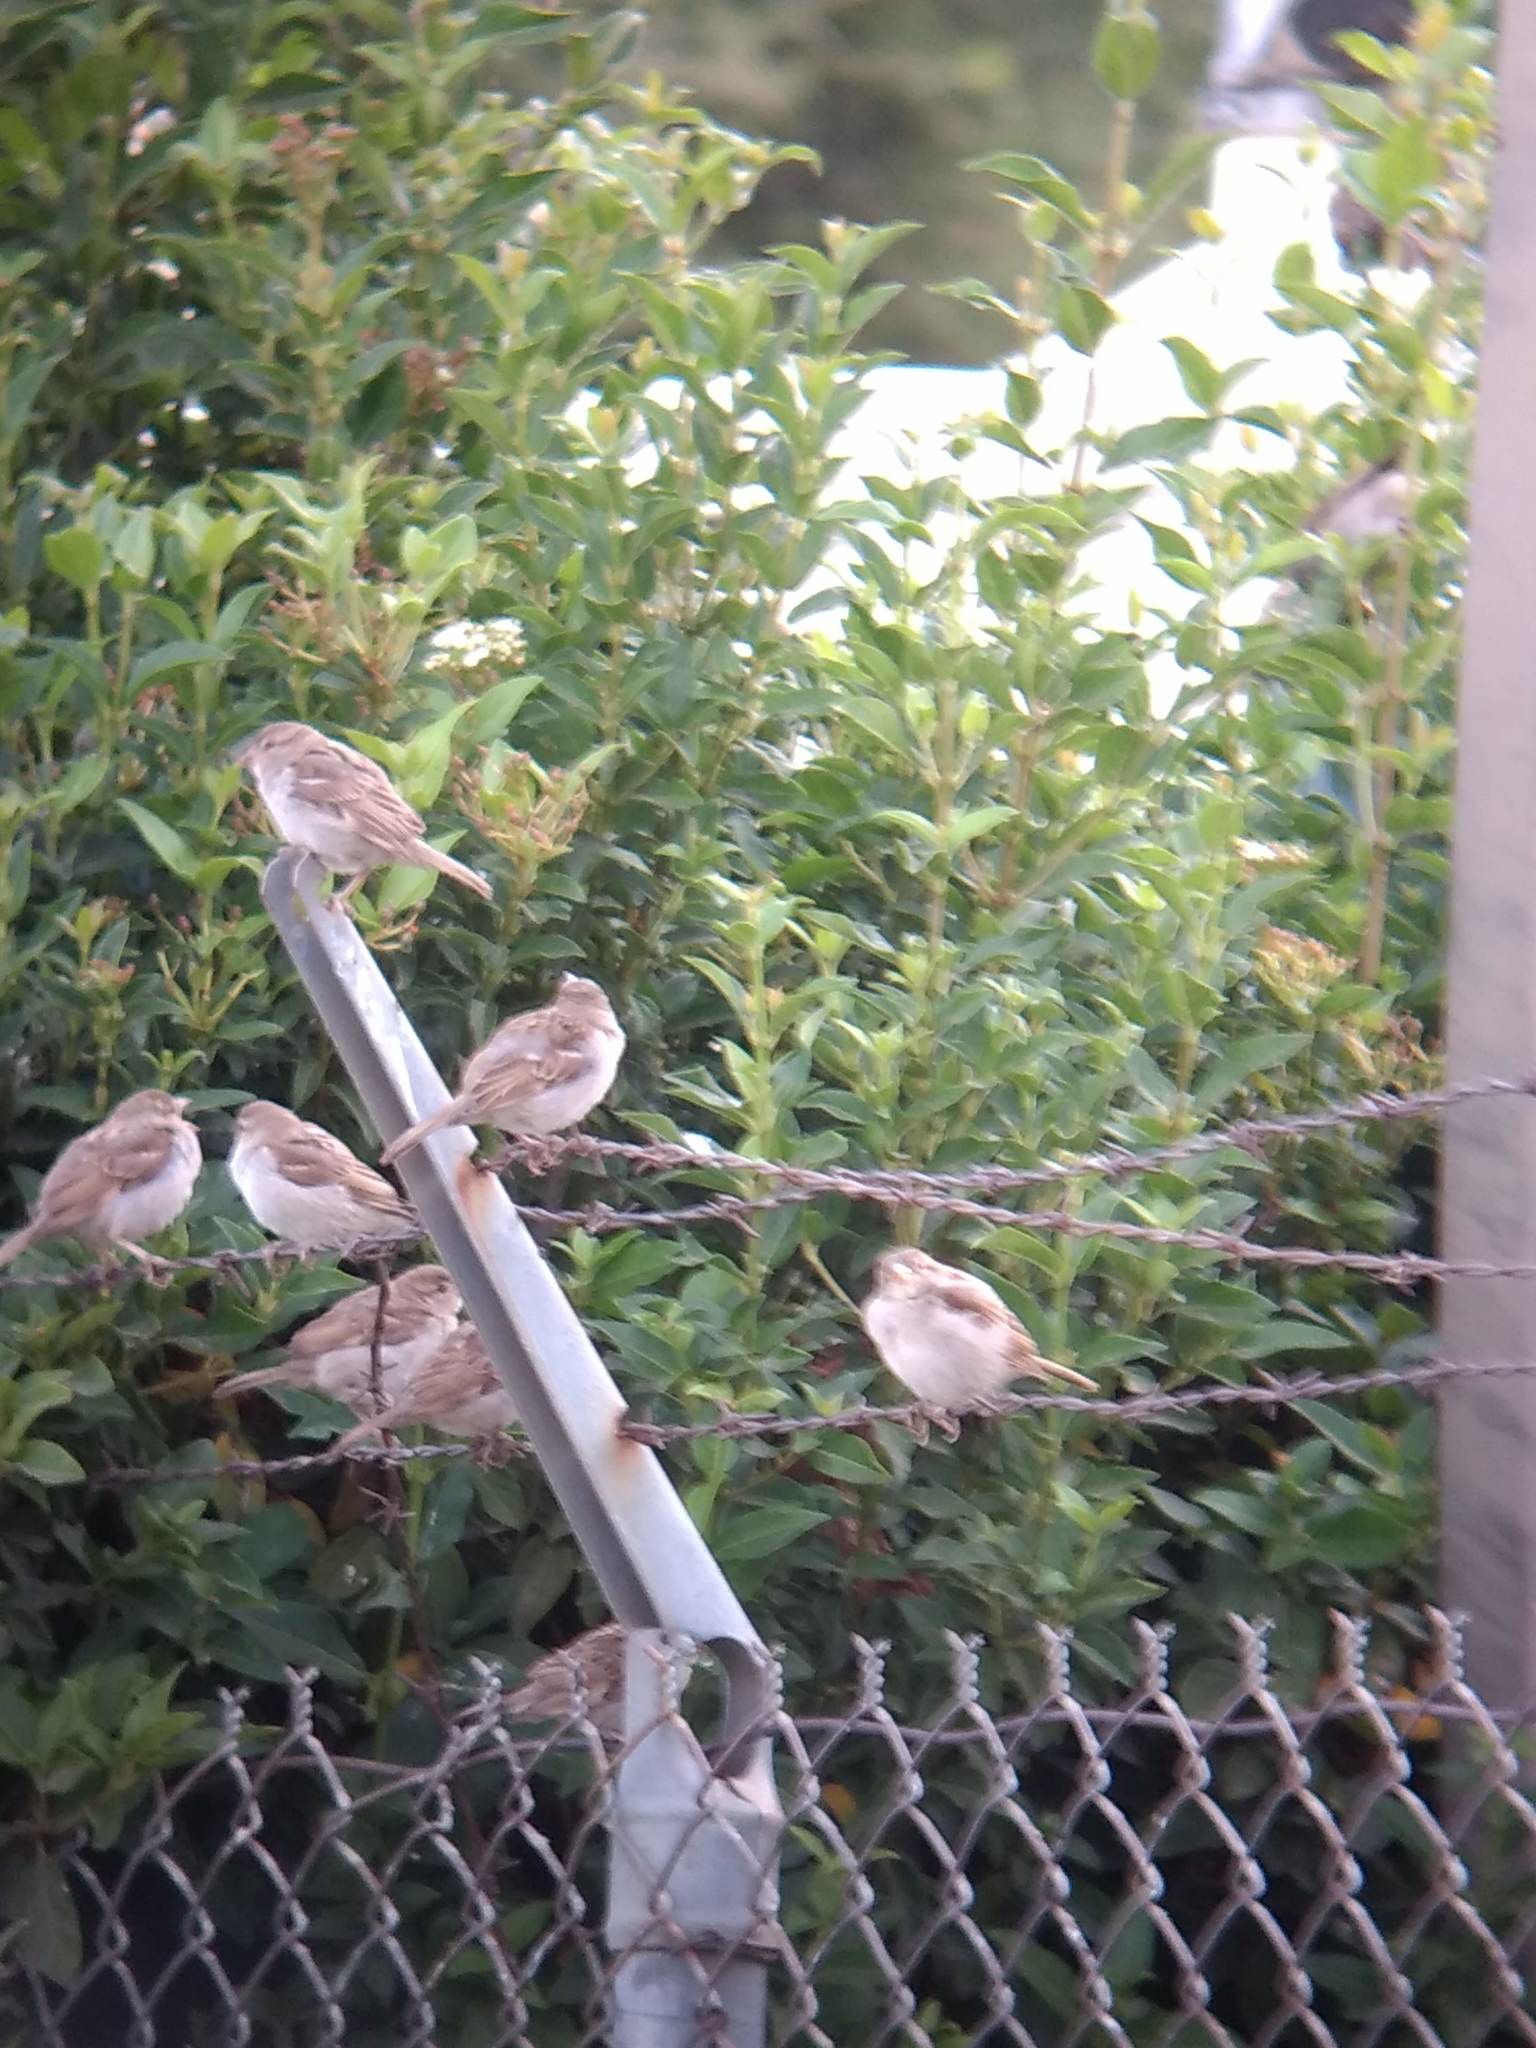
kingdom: Animalia
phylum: Chordata
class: Aves
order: Passeriformes
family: Passeridae
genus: Passer
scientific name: Passer domesticus
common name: House sparrow
